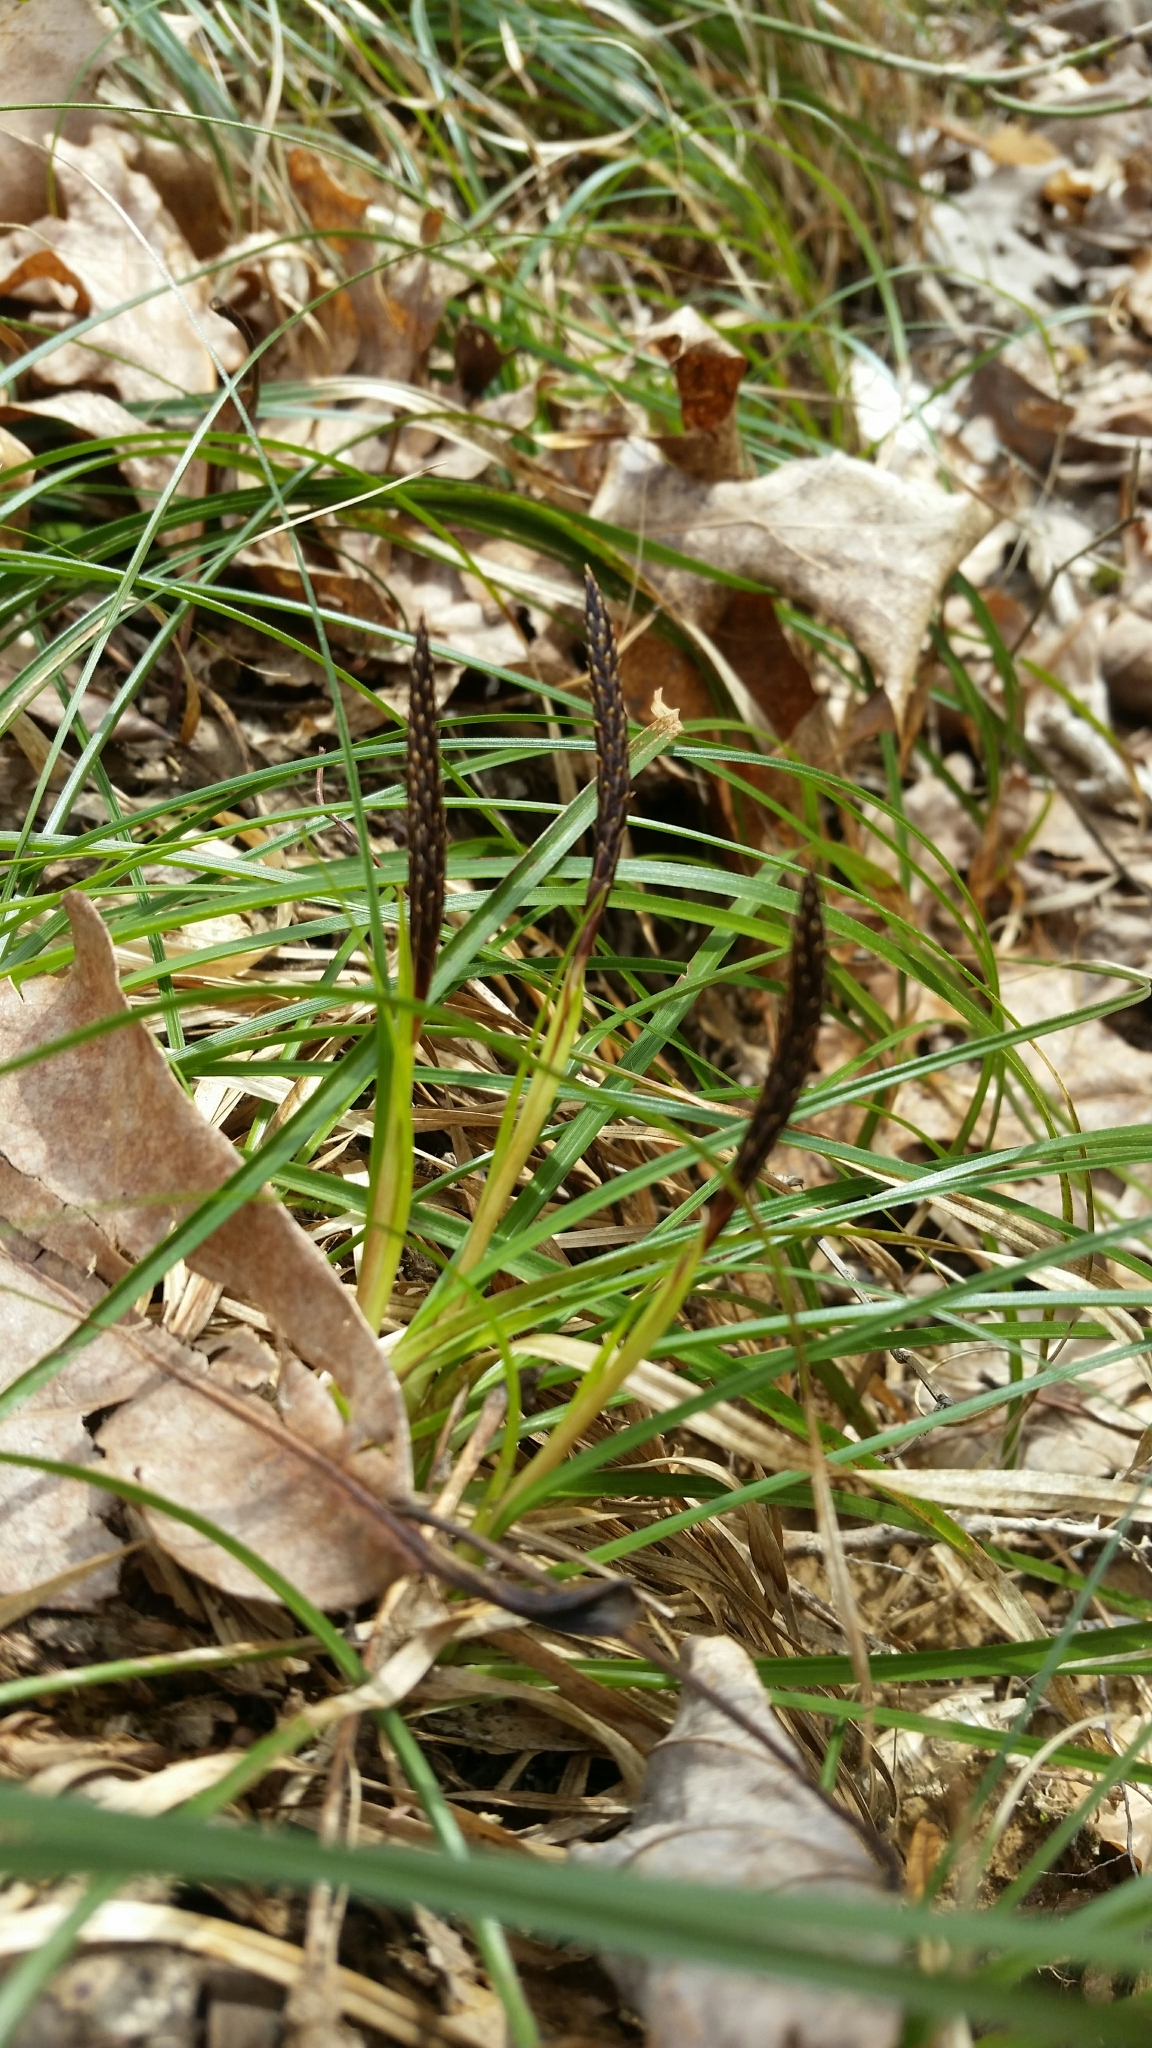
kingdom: Plantae
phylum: Tracheophyta
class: Liliopsida
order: Poales
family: Cyperaceae
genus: Carex
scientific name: Carex picta
